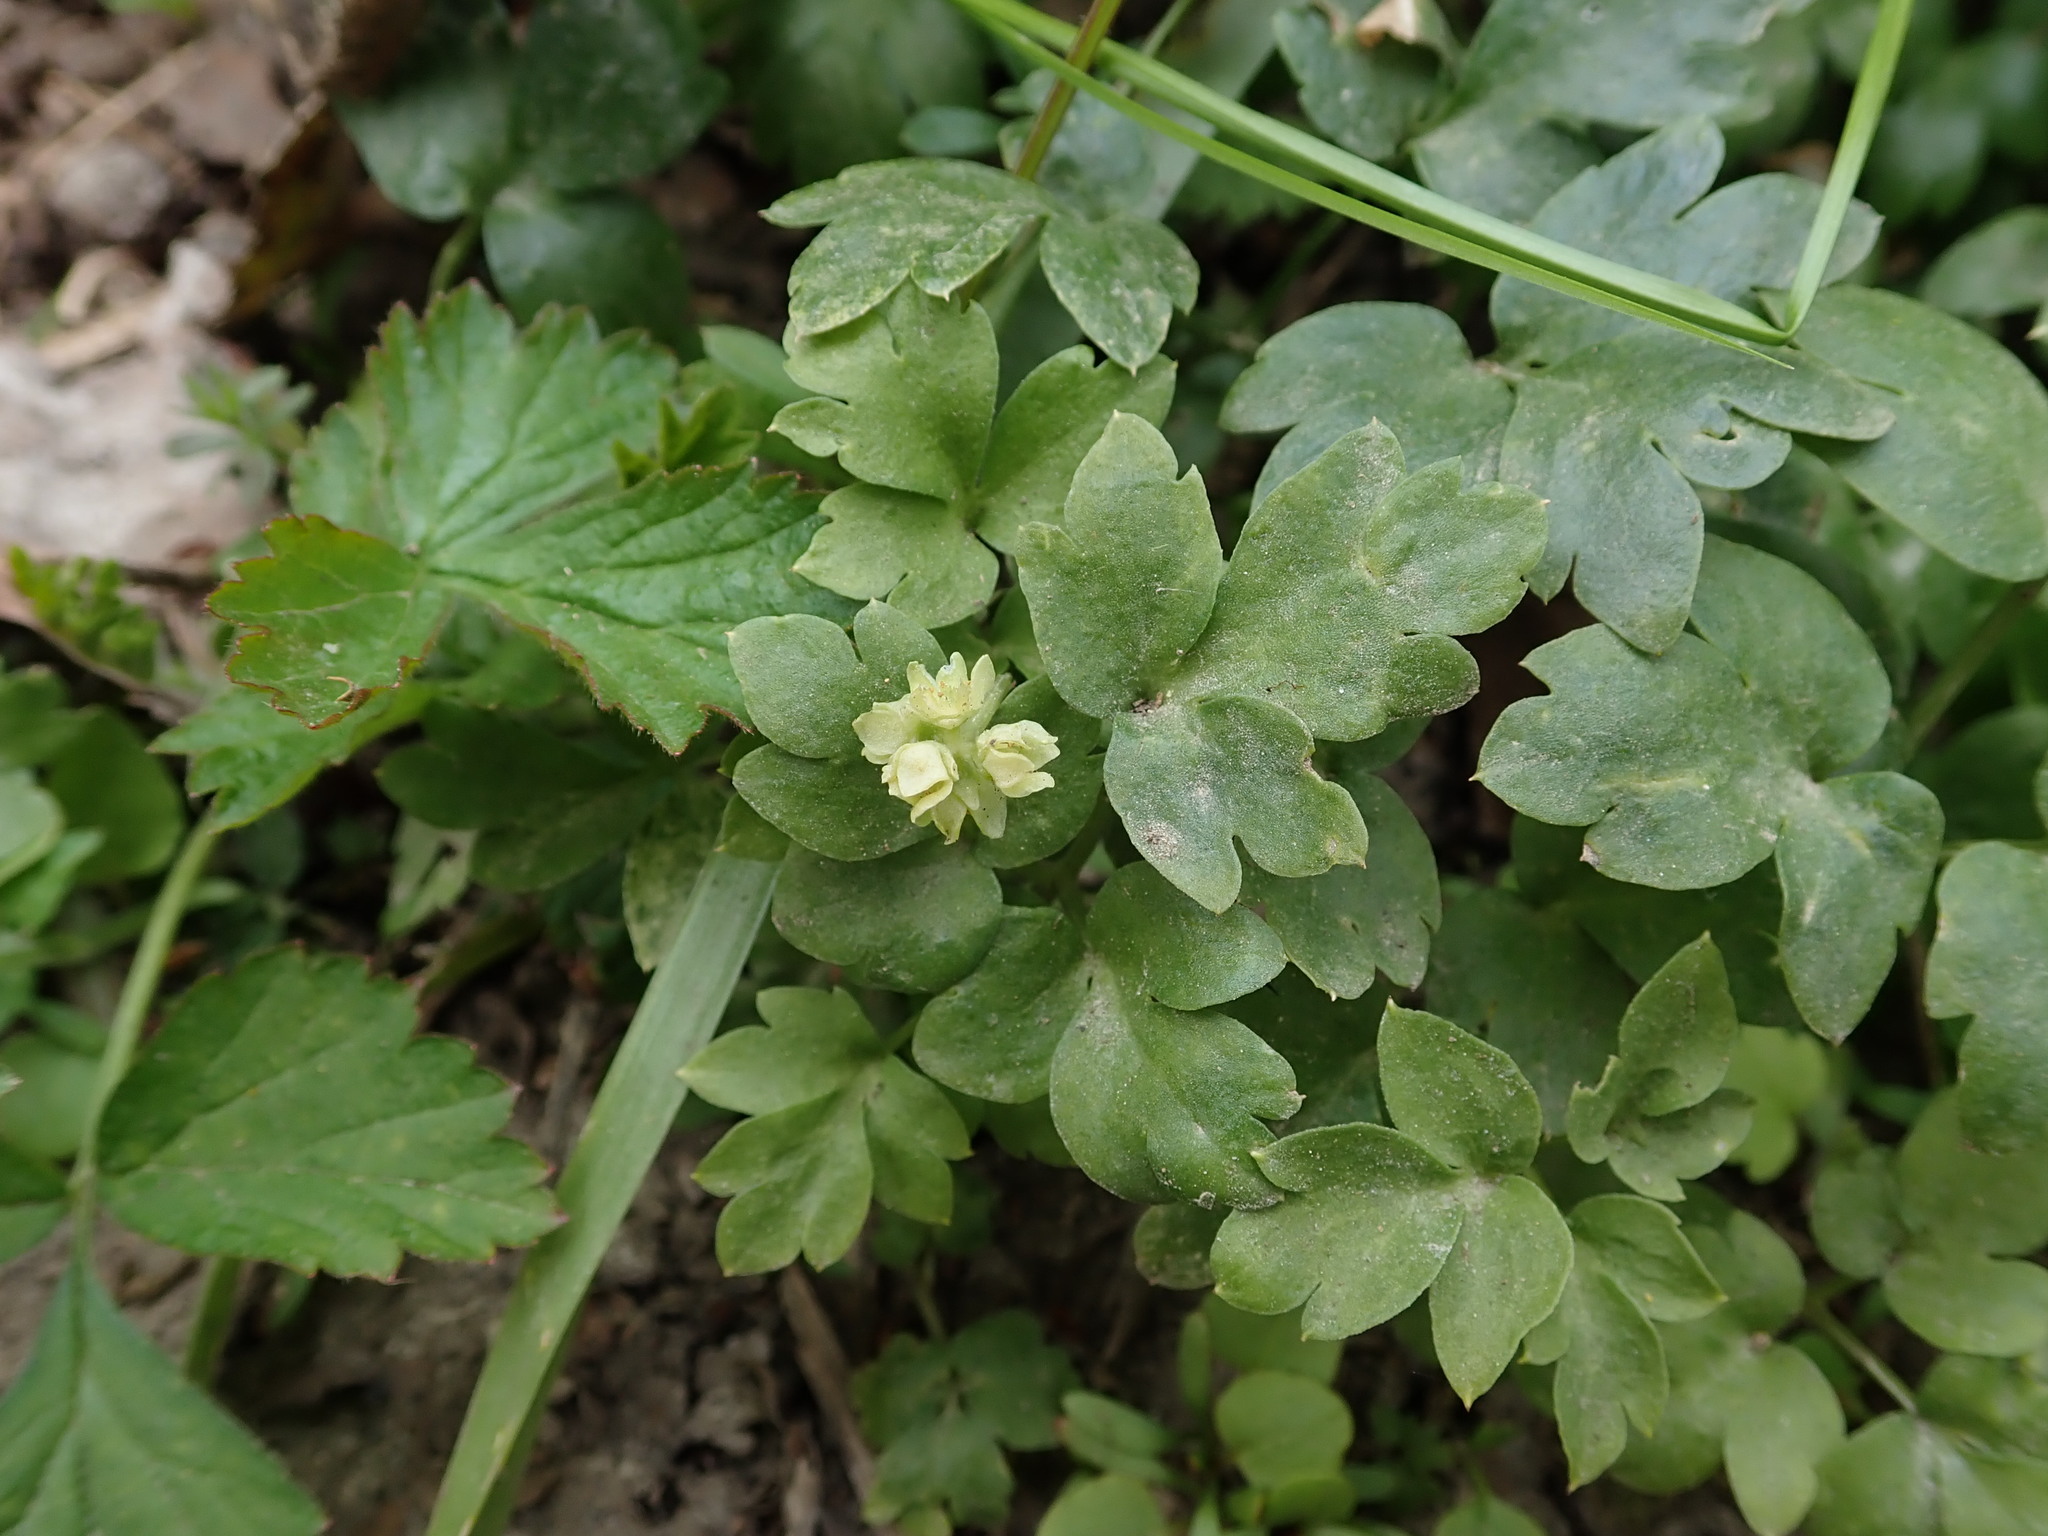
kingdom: Plantae
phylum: Tracheophyta
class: Magnoliopsida
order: Dipsacales
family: Viburnaceae
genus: Adoxa
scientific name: Adoxa moschatellina
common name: Moschatel
